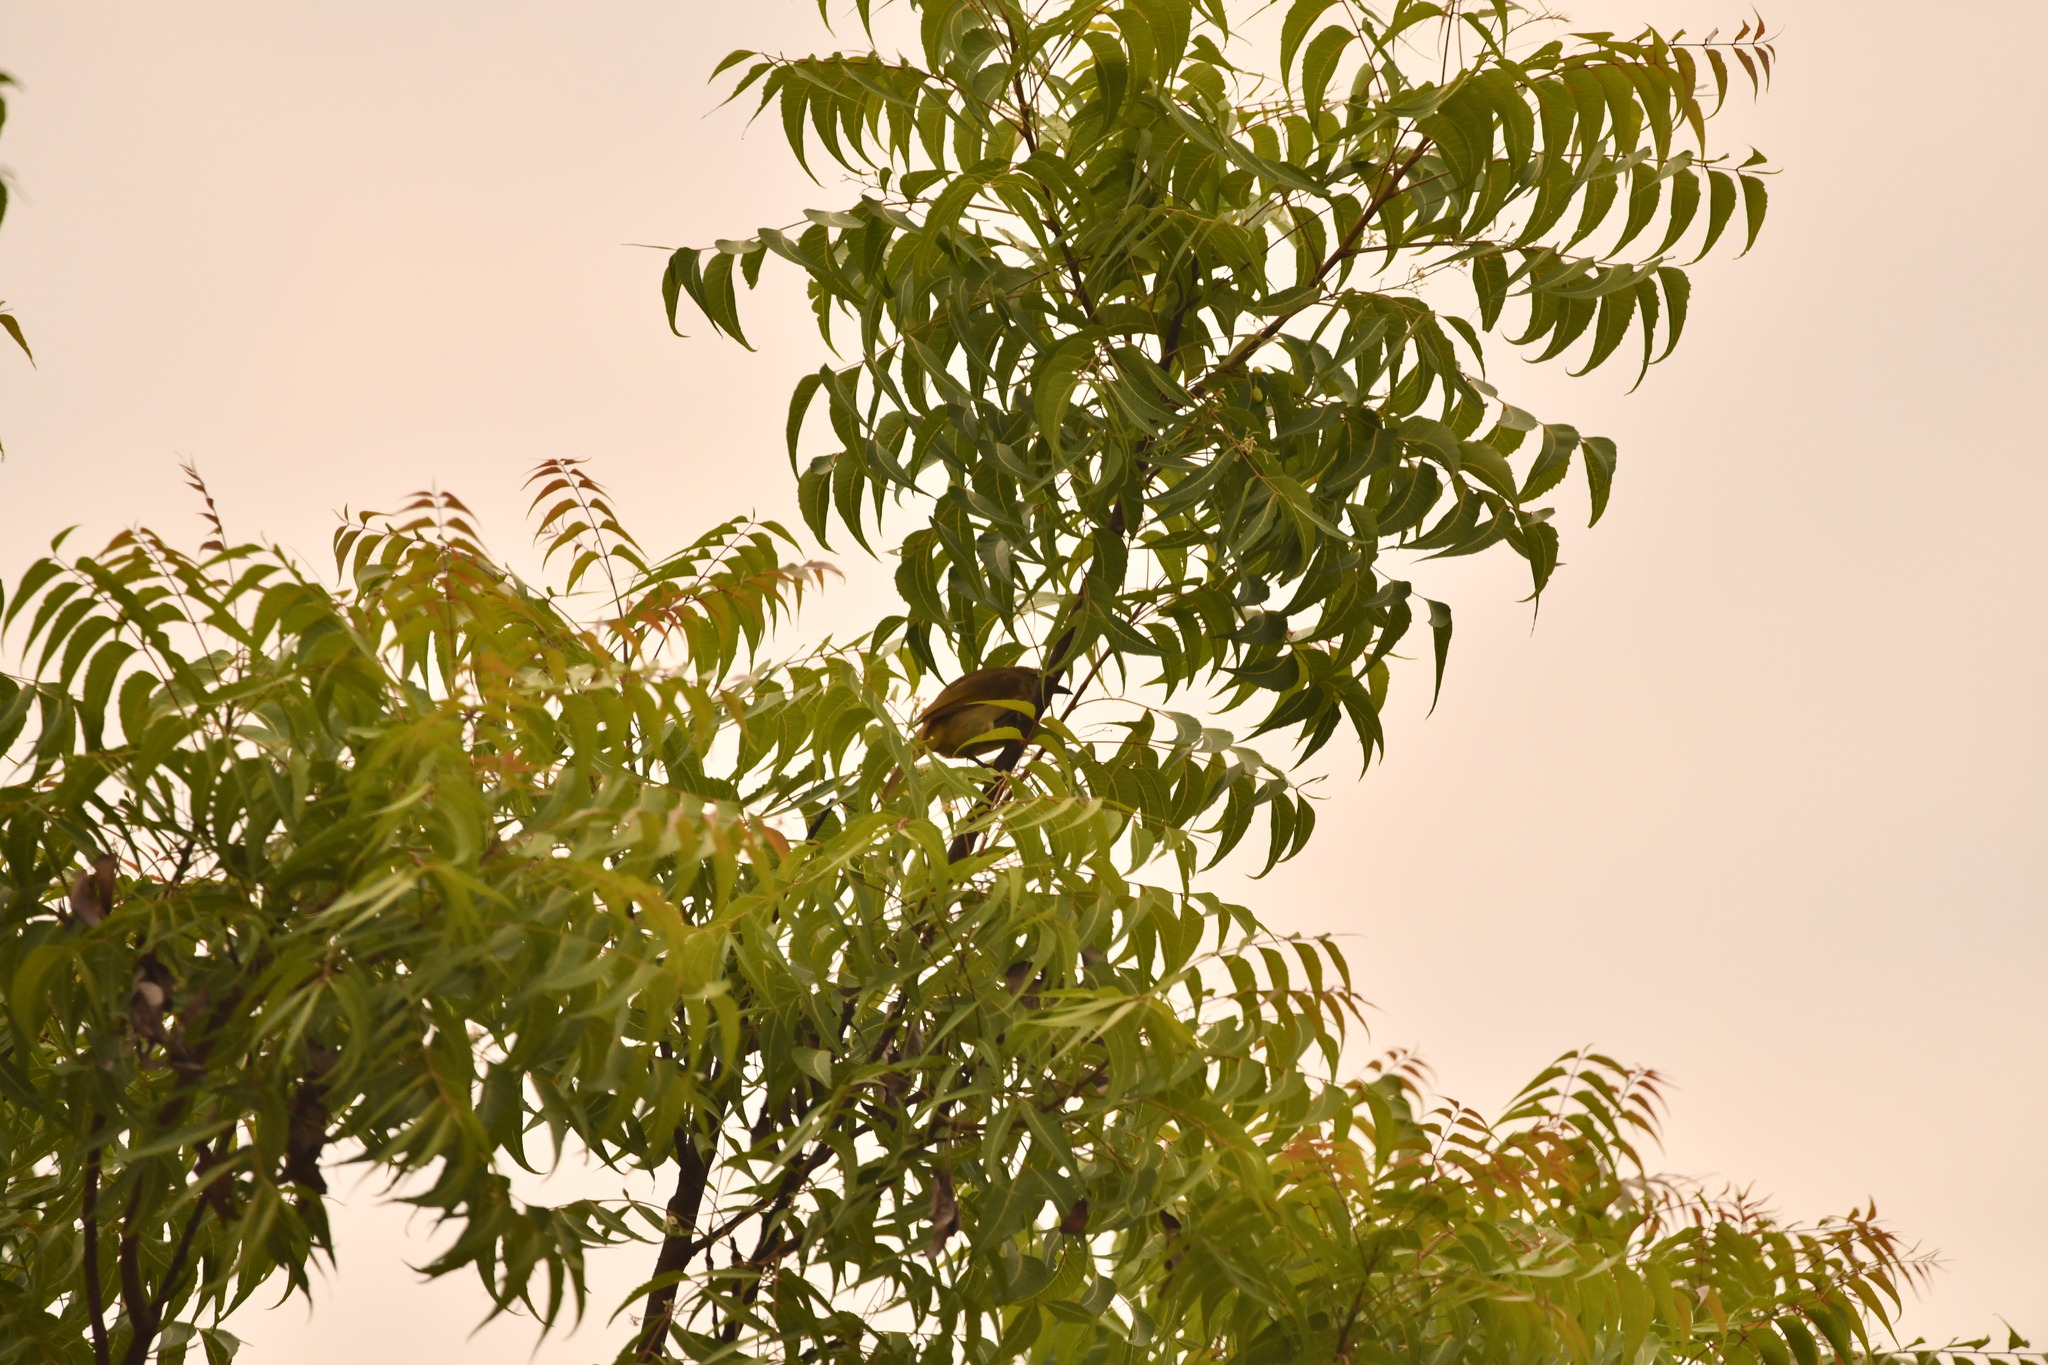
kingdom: Animalia
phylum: Chordata
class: Aves
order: Passeriformes
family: Pycnonotidae
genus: Pycnonotus
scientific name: Pycnonotus luteolus
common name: White-browed bulbul
